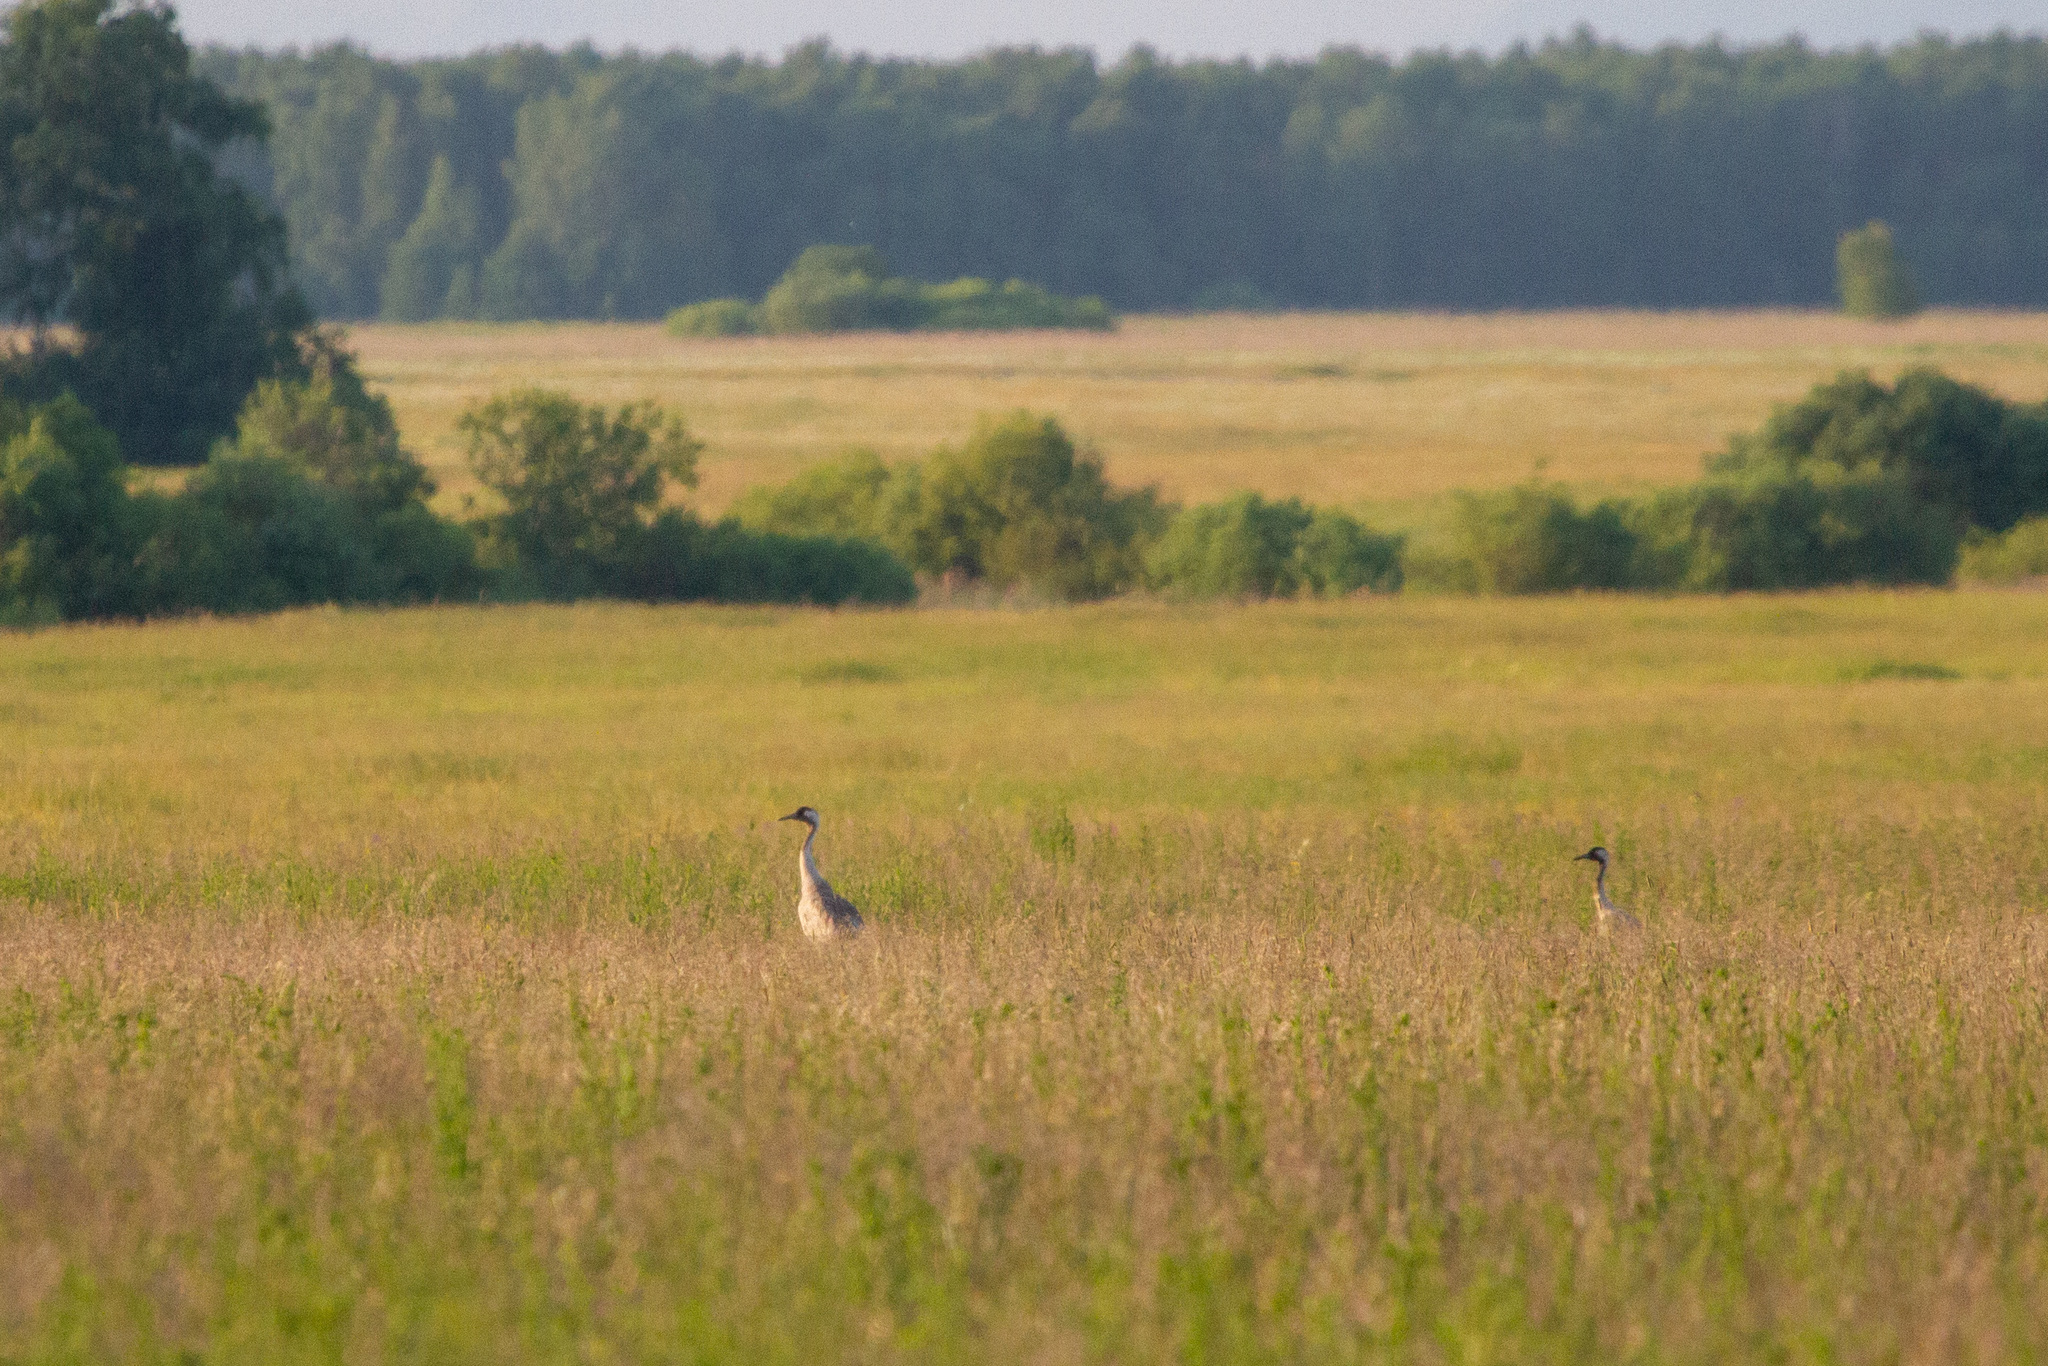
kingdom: Animalia
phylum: Chordata
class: Aves
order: Gruiformes
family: Gruidae
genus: Grus
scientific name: Grus grus
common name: Common crane
